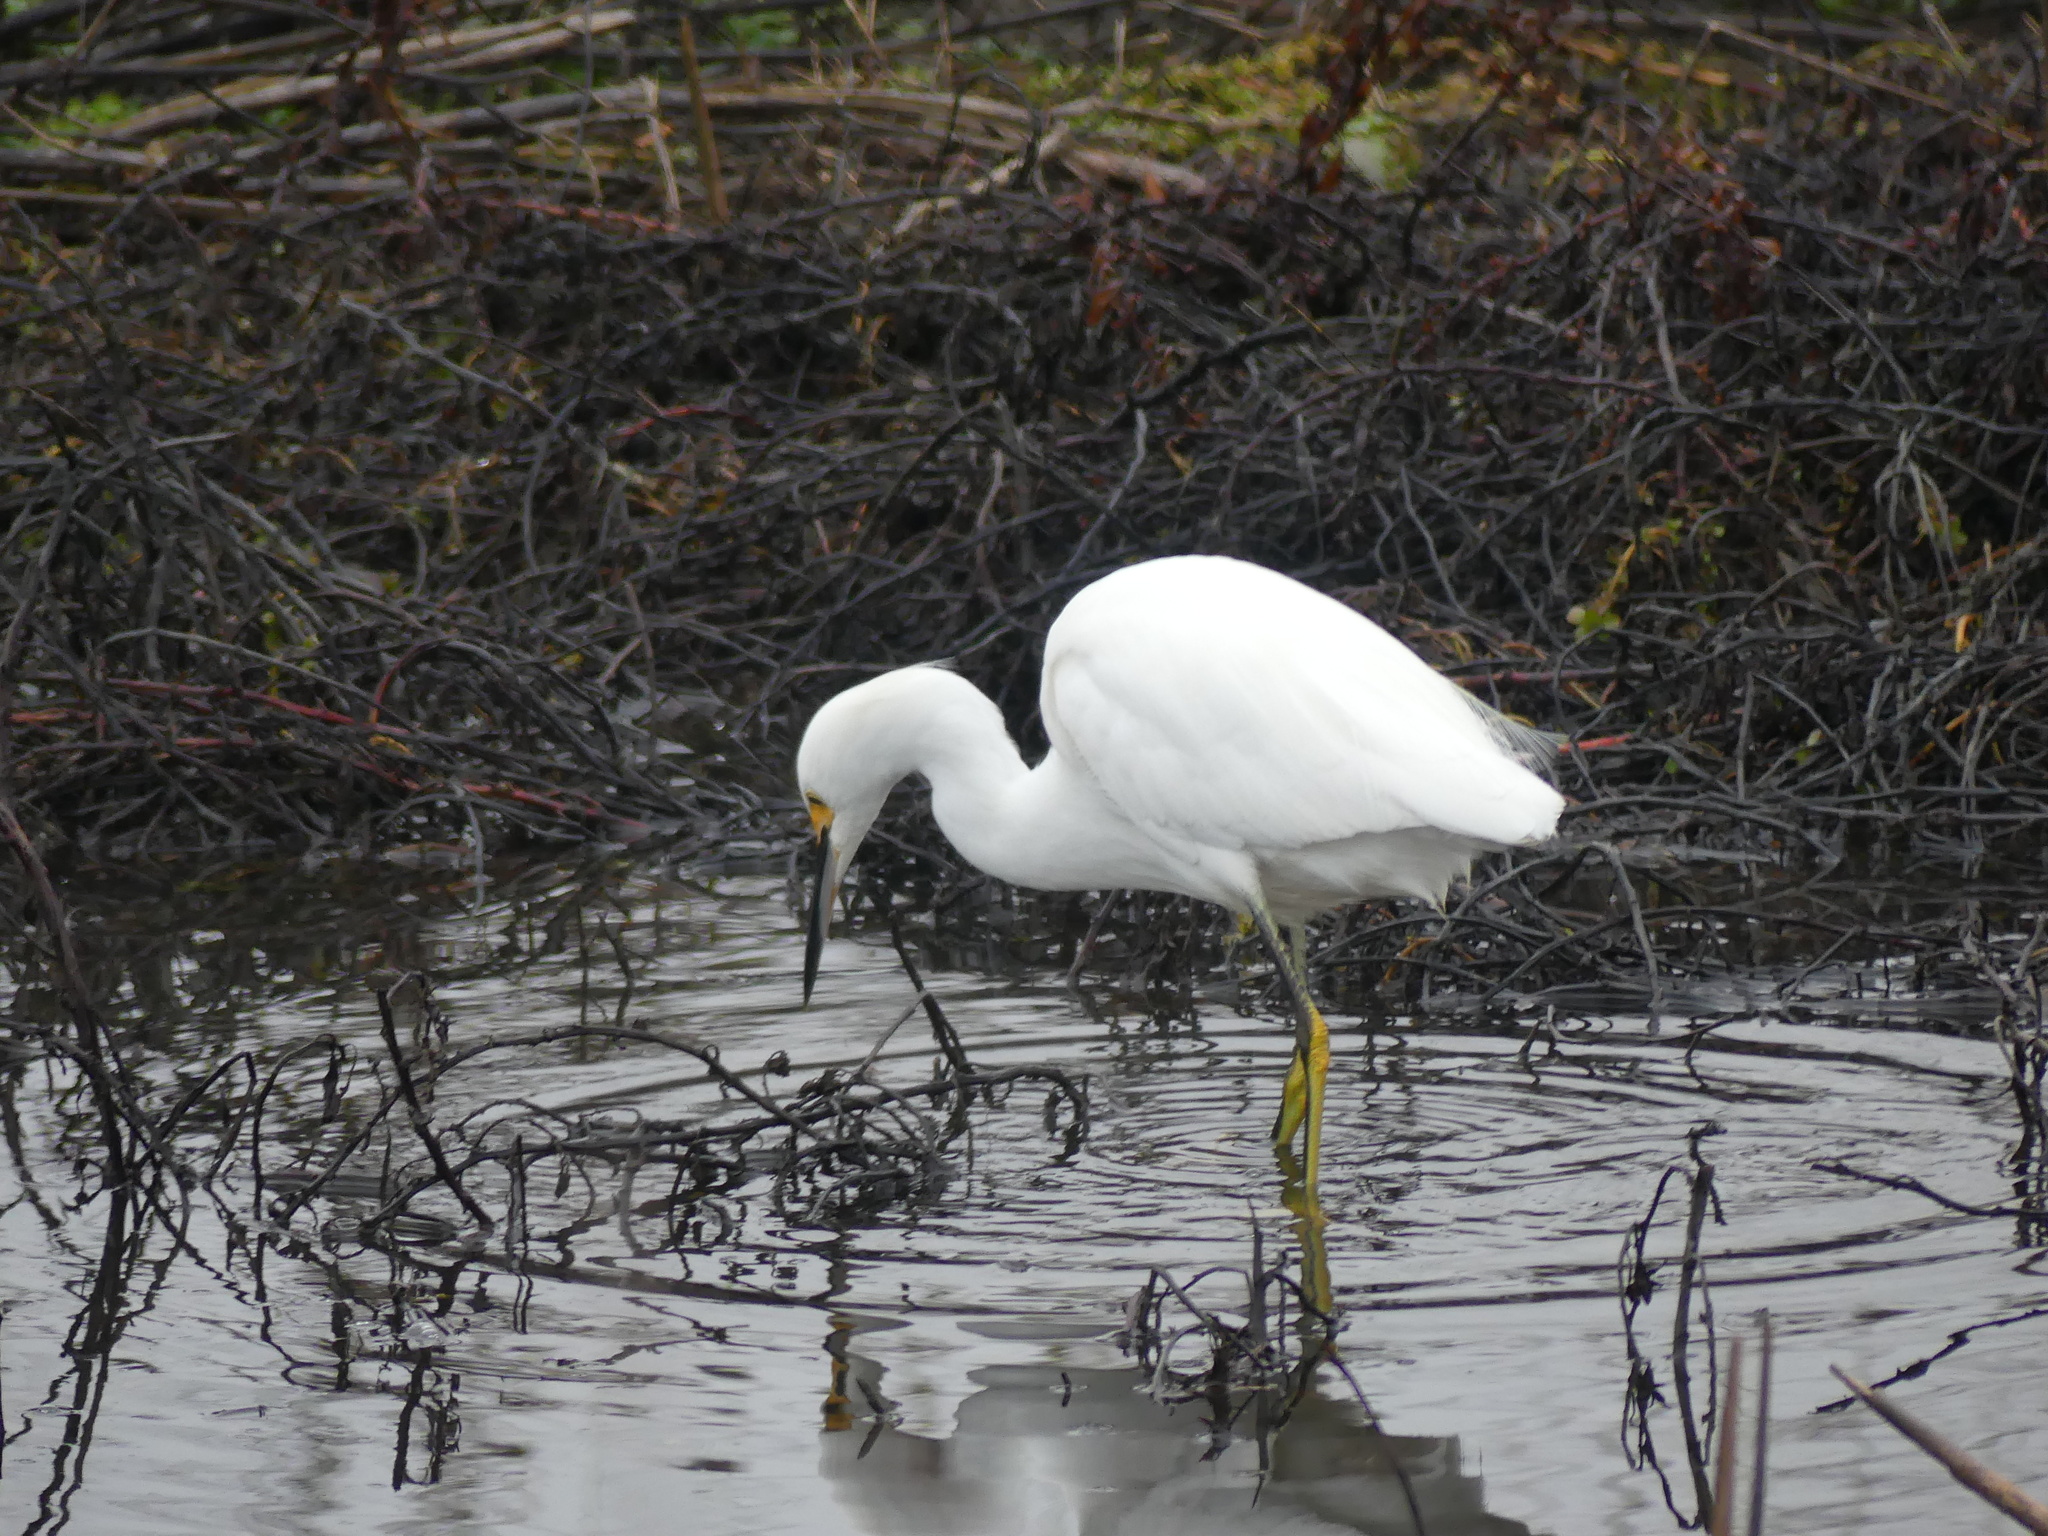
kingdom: Animalia
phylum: Chordata
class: Aves
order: Pelecaniformes
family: Ardeidae
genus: Egretta
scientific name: Egretta thula
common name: Snowy egret
